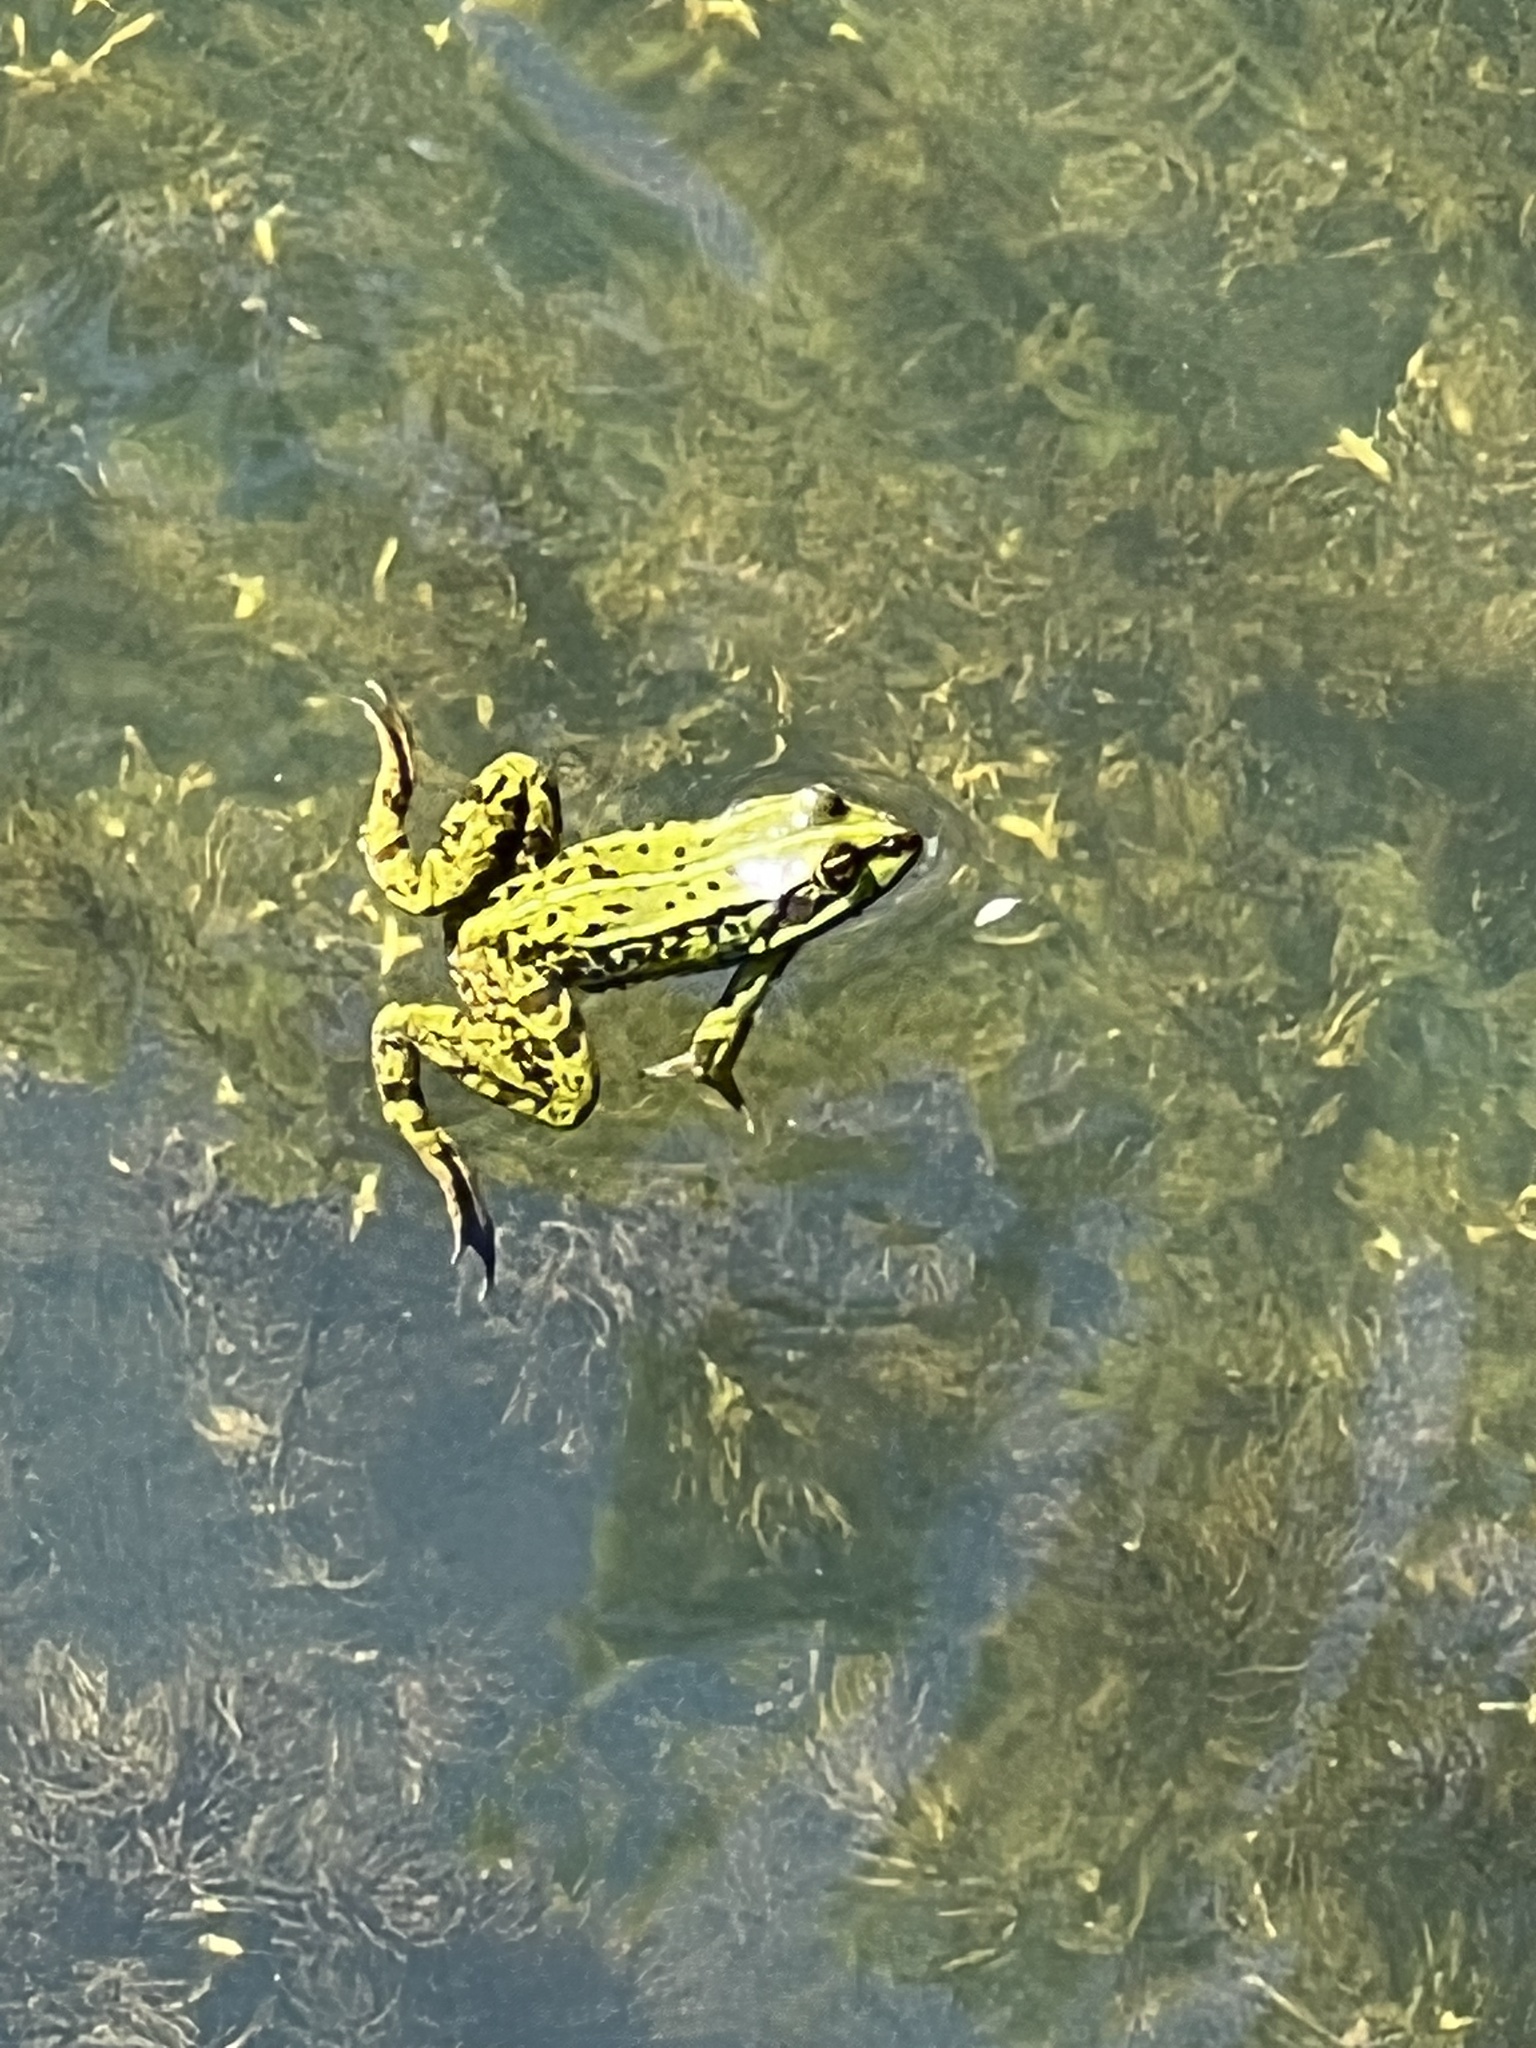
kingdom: Animalia
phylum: Chordata
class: Amphibia
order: Anura
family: Ranidae
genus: Pelophylax
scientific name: Pelophylax lessonae
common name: Pool frog
